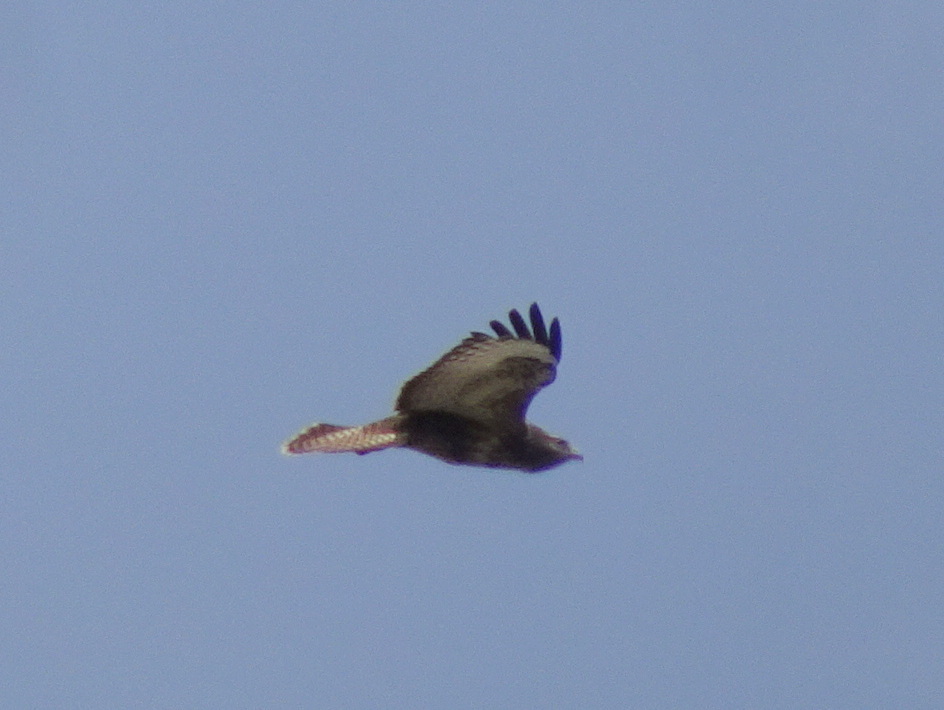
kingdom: Animalia
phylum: Chordata
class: Aves
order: Accipitriformes
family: Accipitridae
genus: Buteo
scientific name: Buteo buteo
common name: Common buzzard
